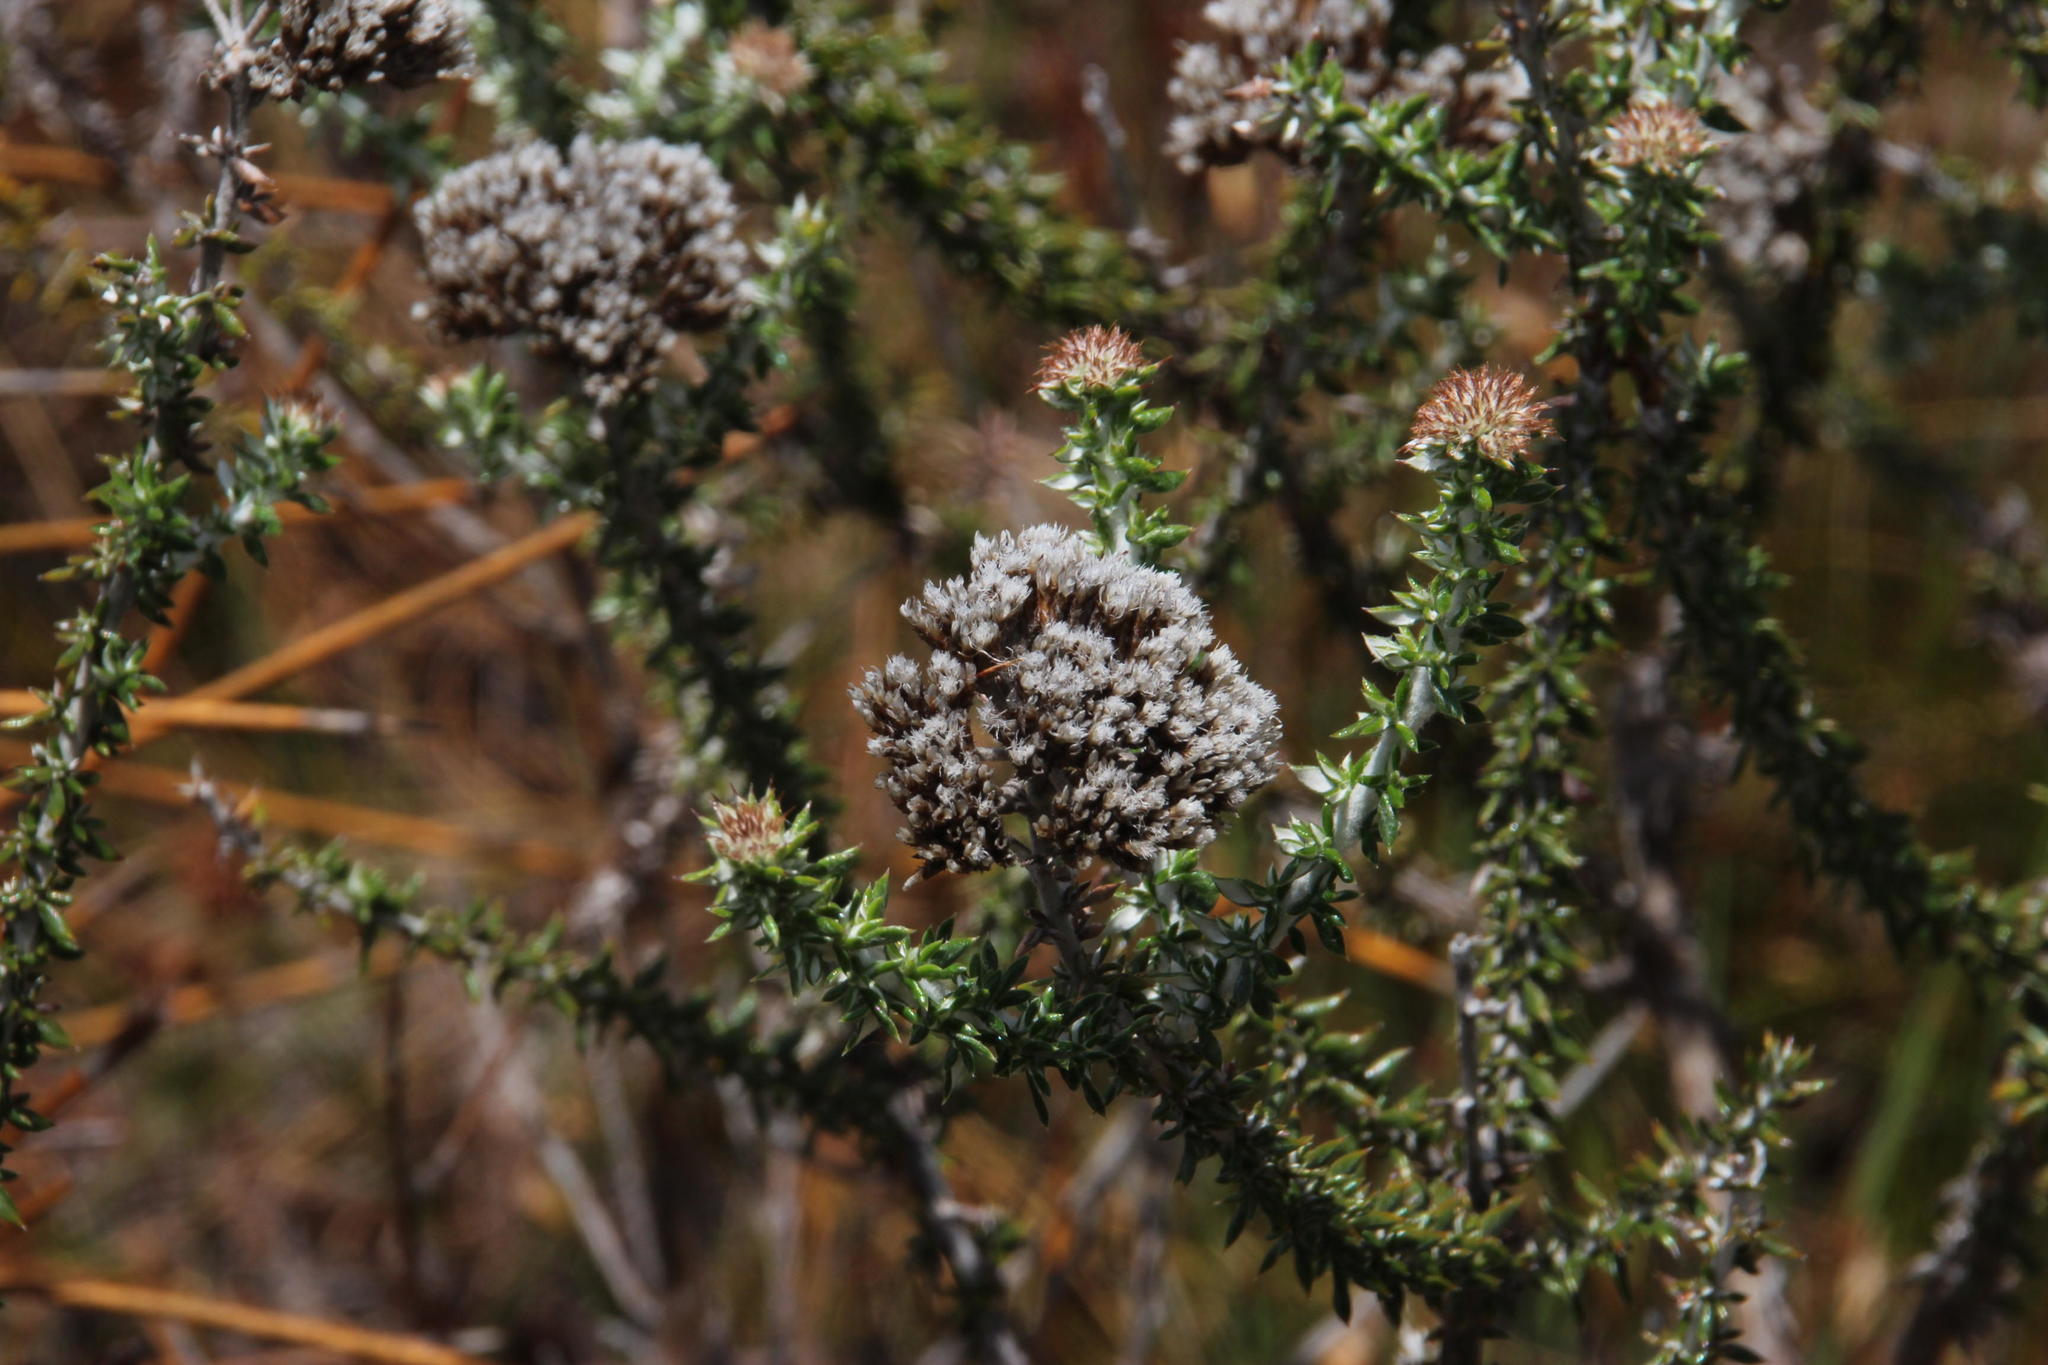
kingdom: Plantae
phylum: Tracheophyta
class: Magnoliopsida
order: Asterales
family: Asteraceae
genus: Metalasia
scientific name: Metalasia densa
